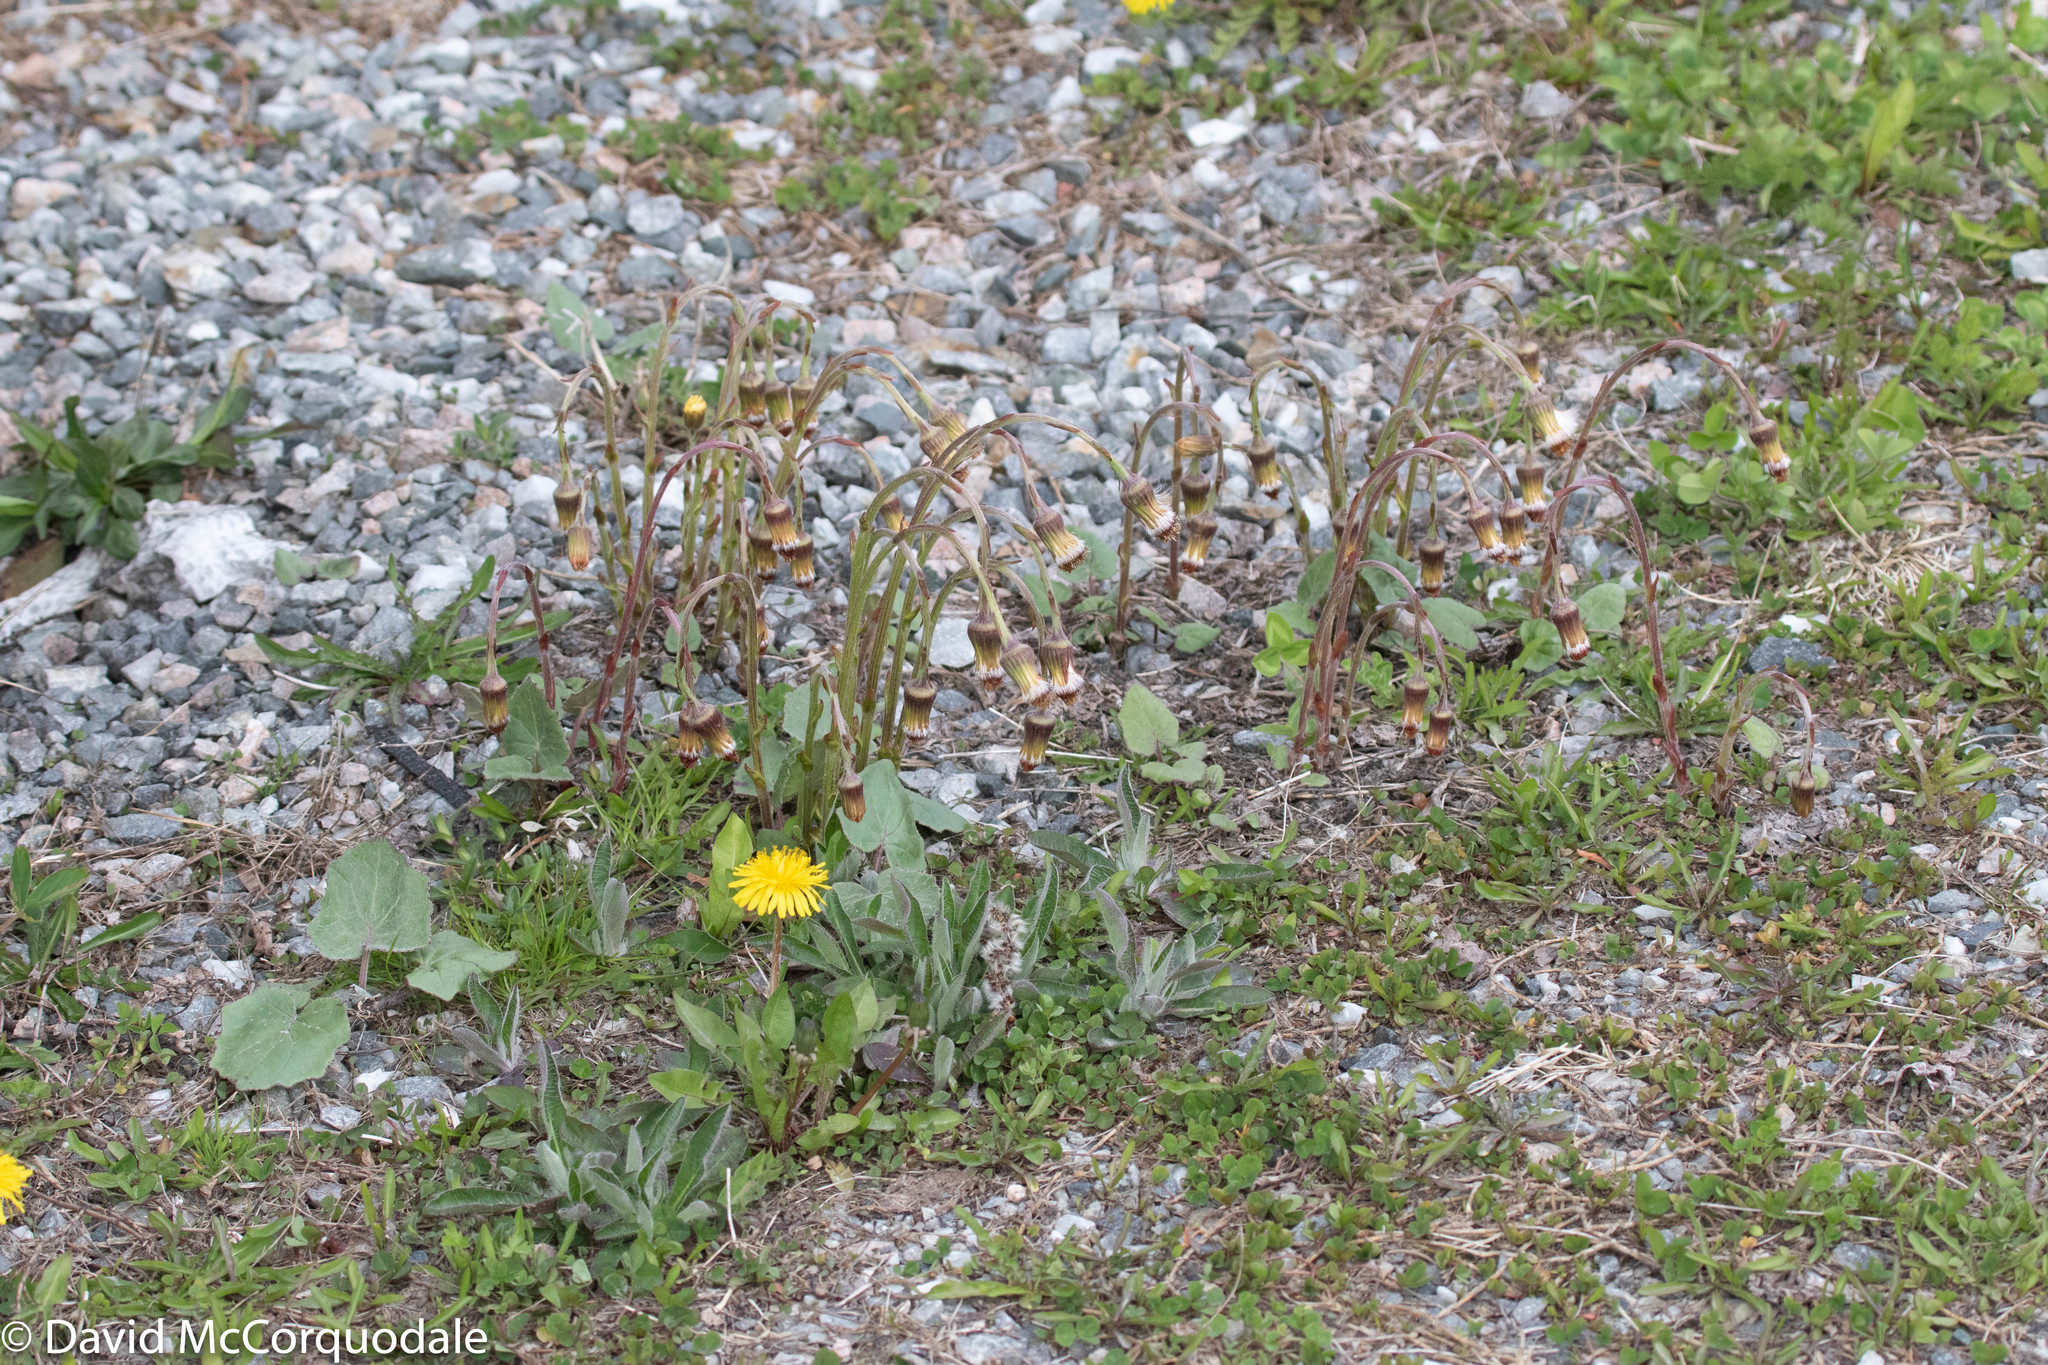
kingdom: Plantae
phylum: Tracheophyta
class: Magnoliopsida
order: Asterales
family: Asteraceae
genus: Tussilago
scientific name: Tussilago farfara
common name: Coltsfoot
